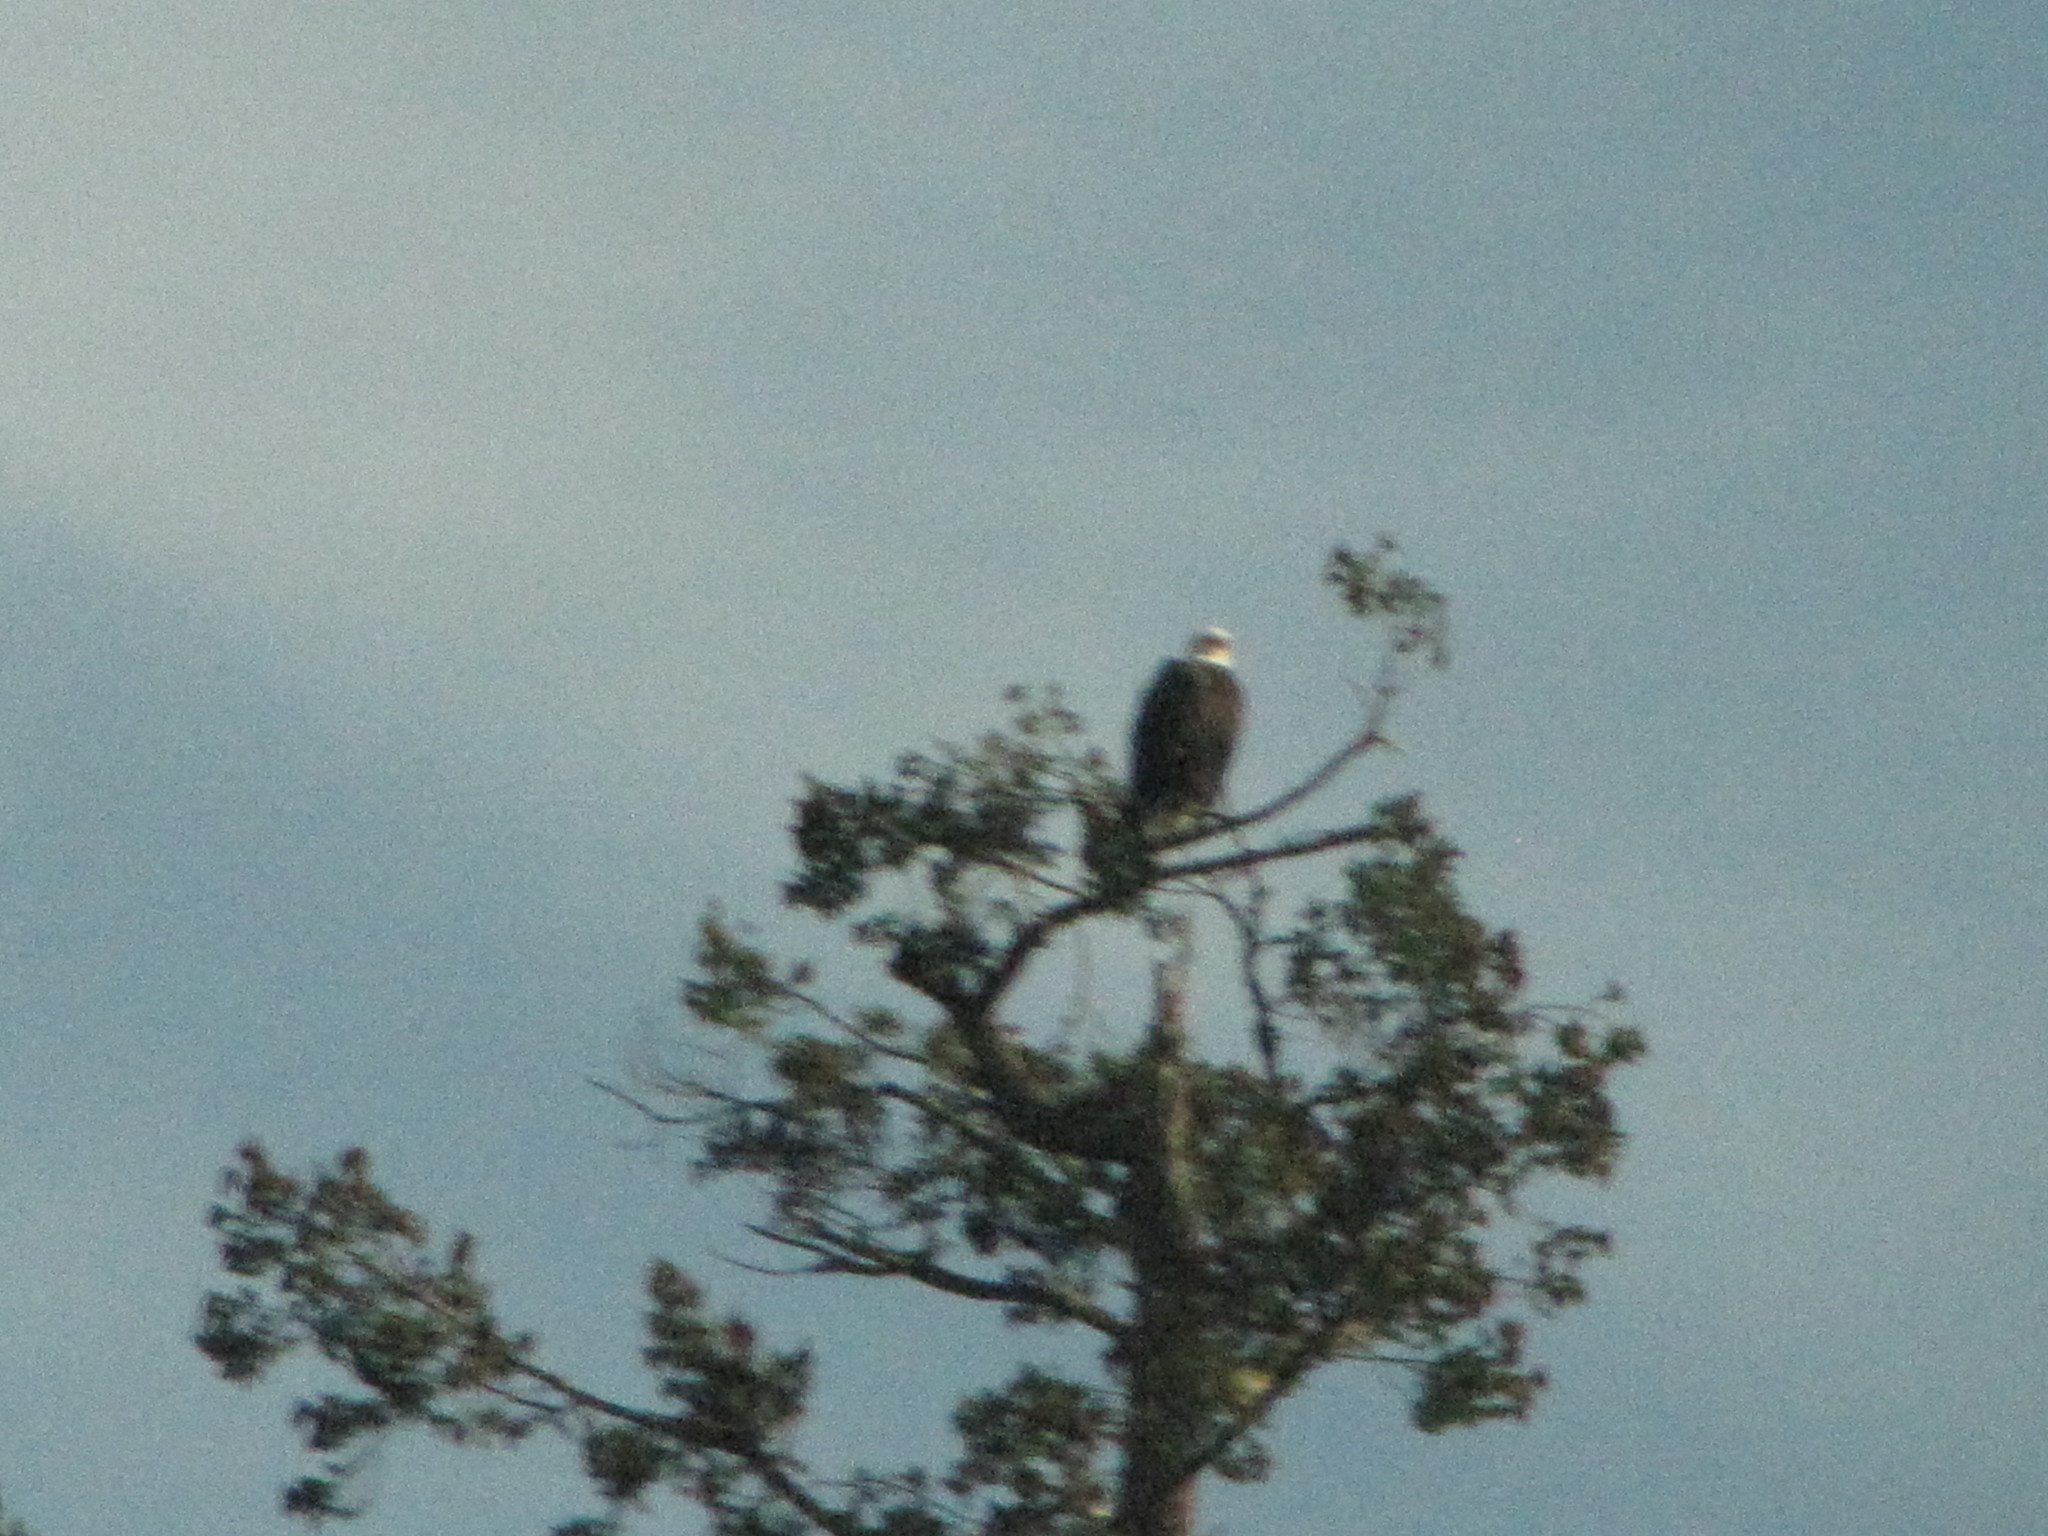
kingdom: Animalia
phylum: Chordata
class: Aves
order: Accipitriformes
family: Accipitridae
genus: Haliaeetus
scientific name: Haliaeetus leucocephalus
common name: Bald eagle
